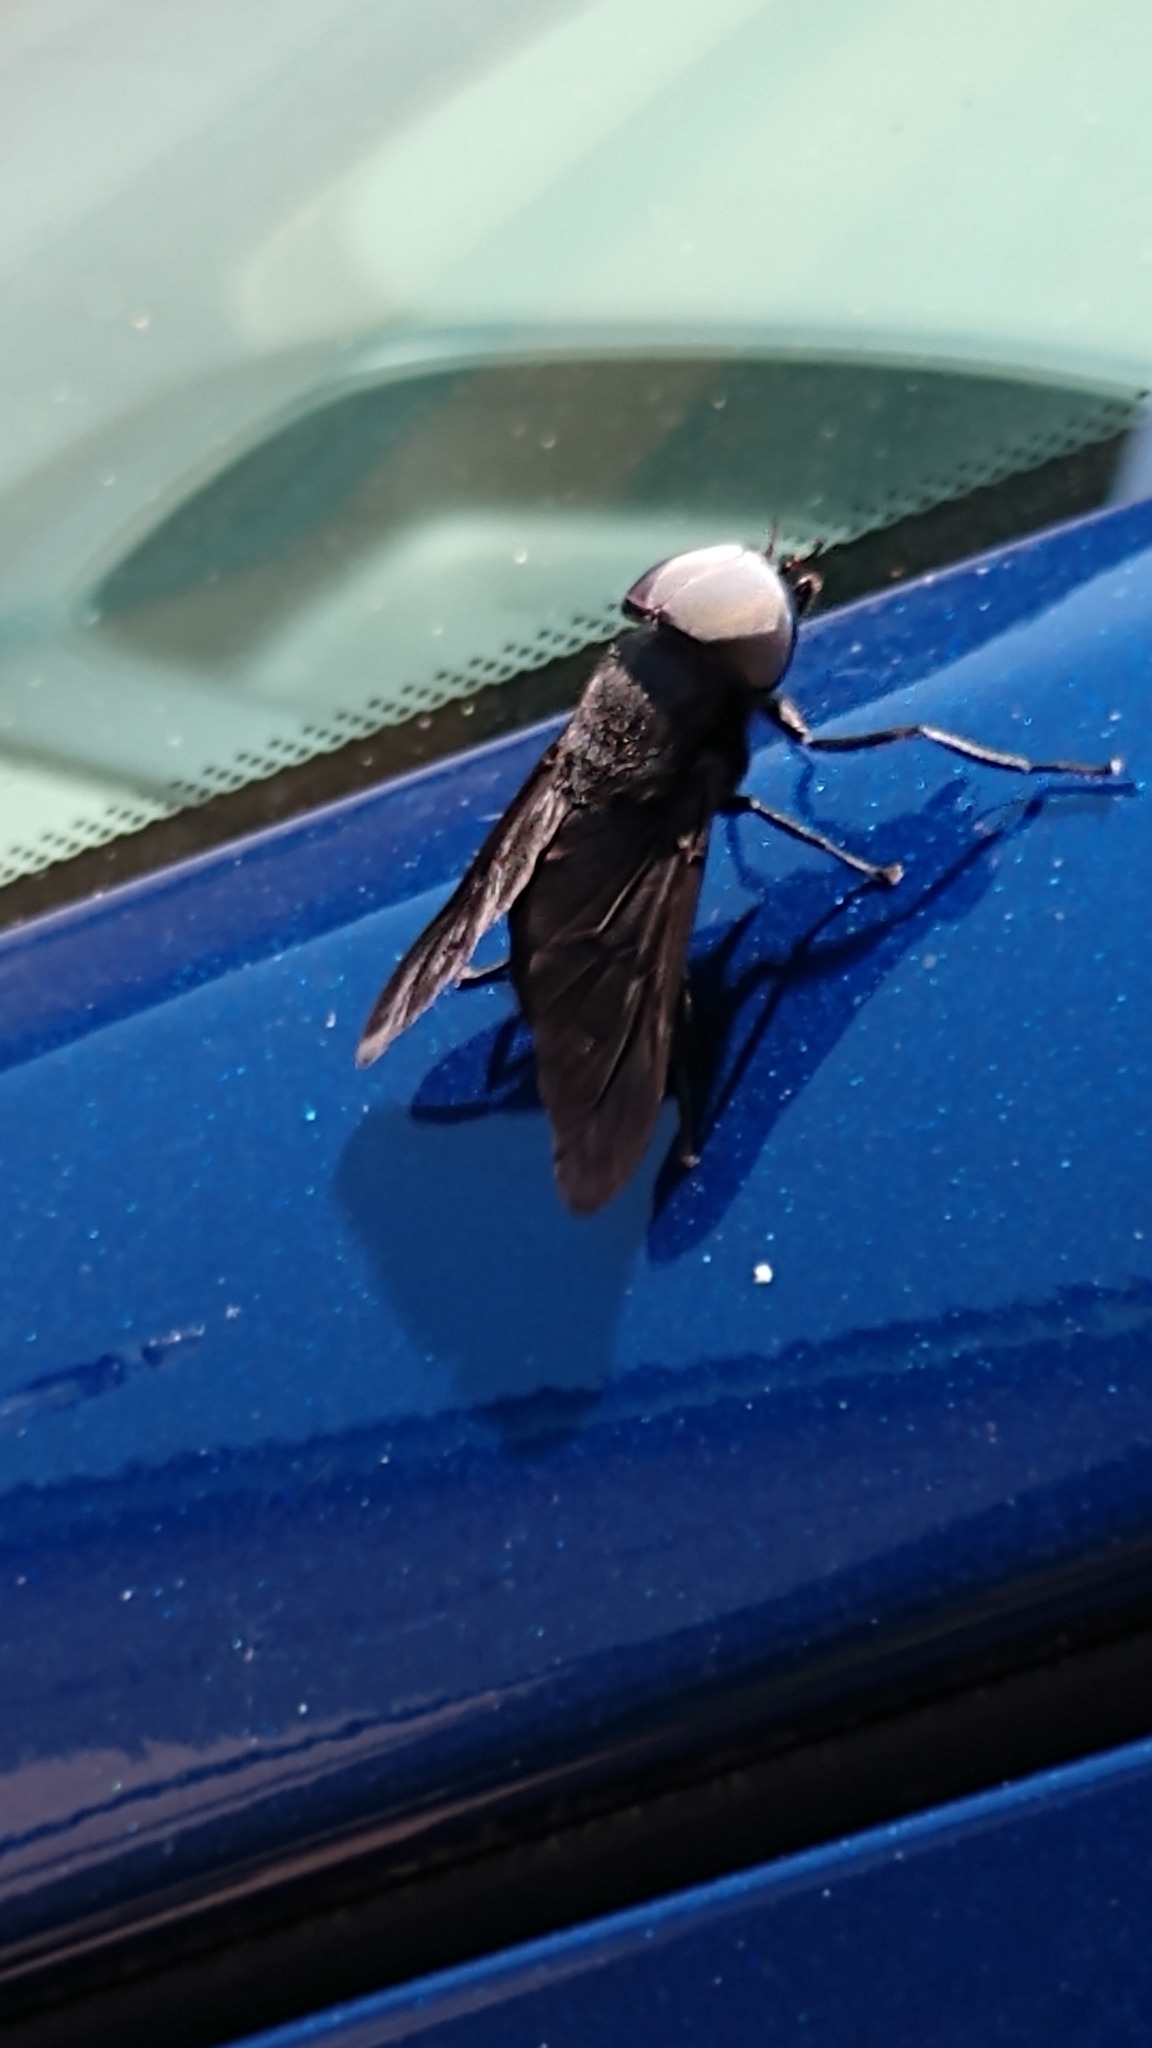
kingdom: Animalia
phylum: Arthropoda
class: Insecta
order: Diptera
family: Tabanidae
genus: Tabanus
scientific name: Tabanus atratus
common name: Black horse fly
